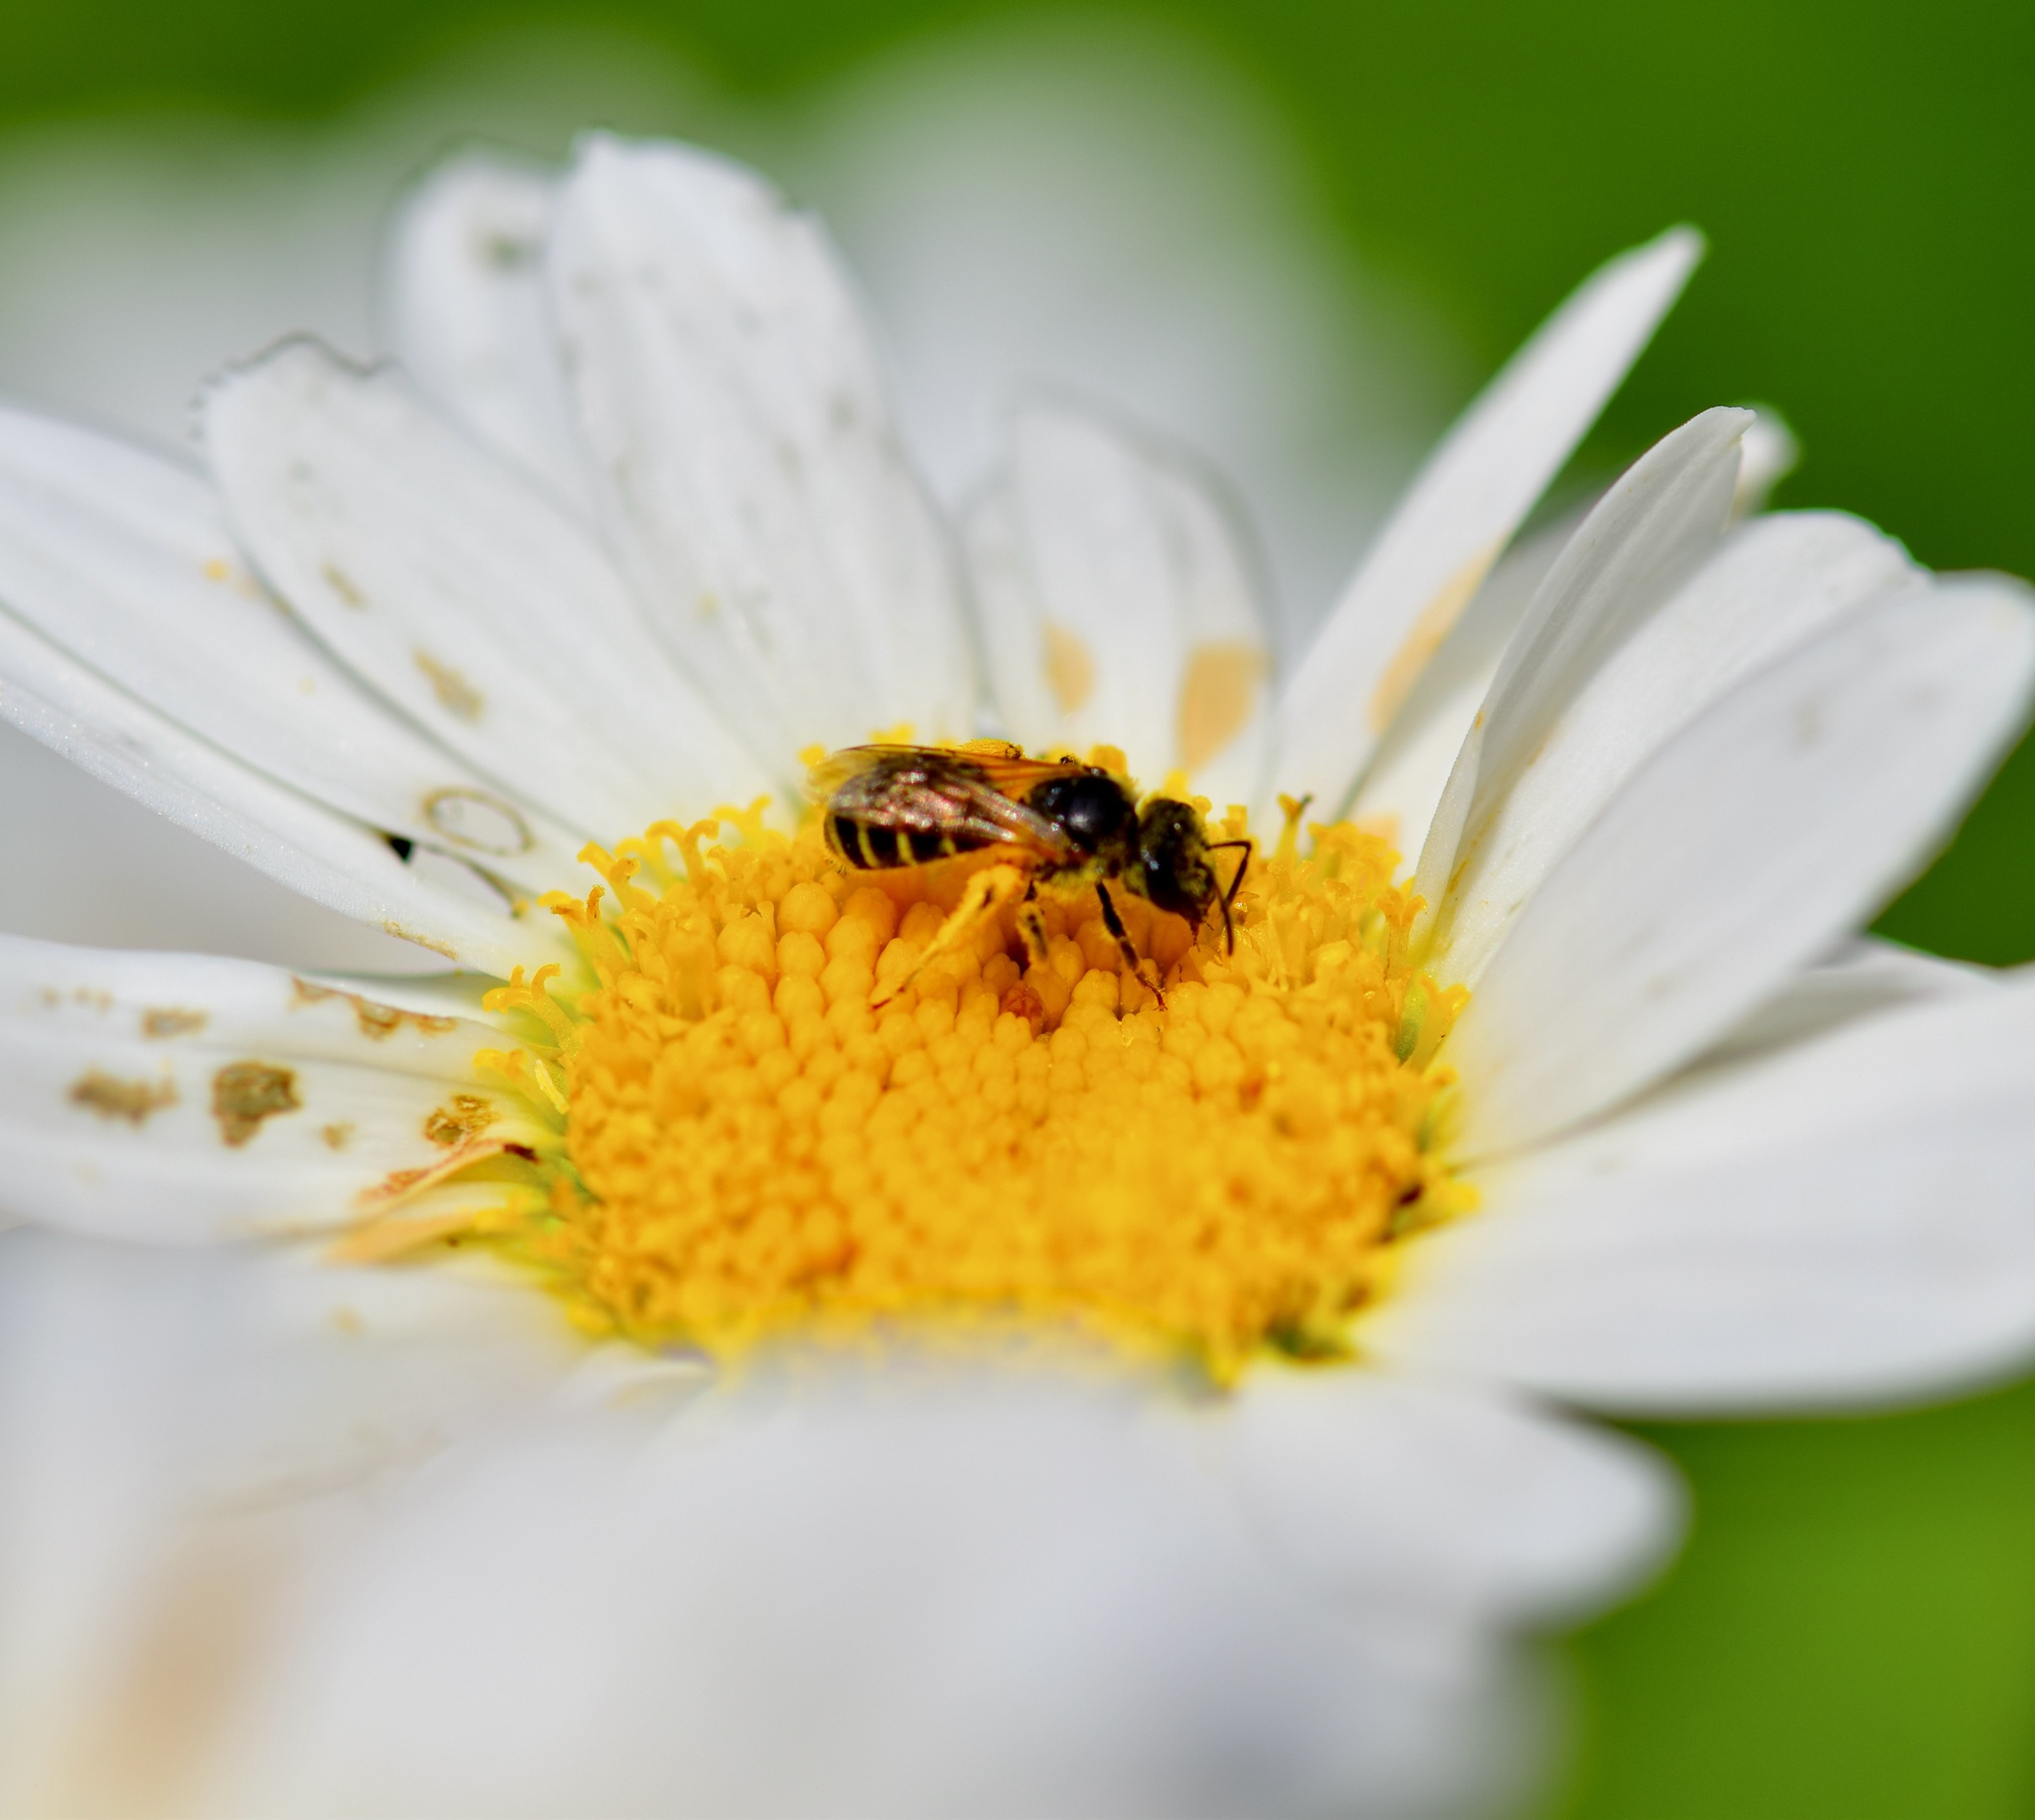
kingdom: Animalia
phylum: Arthropoda
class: Insecta
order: Hymenoptera
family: Halictidae
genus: Halictus
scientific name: Halictus ligatus
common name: Ligated furrow bee
